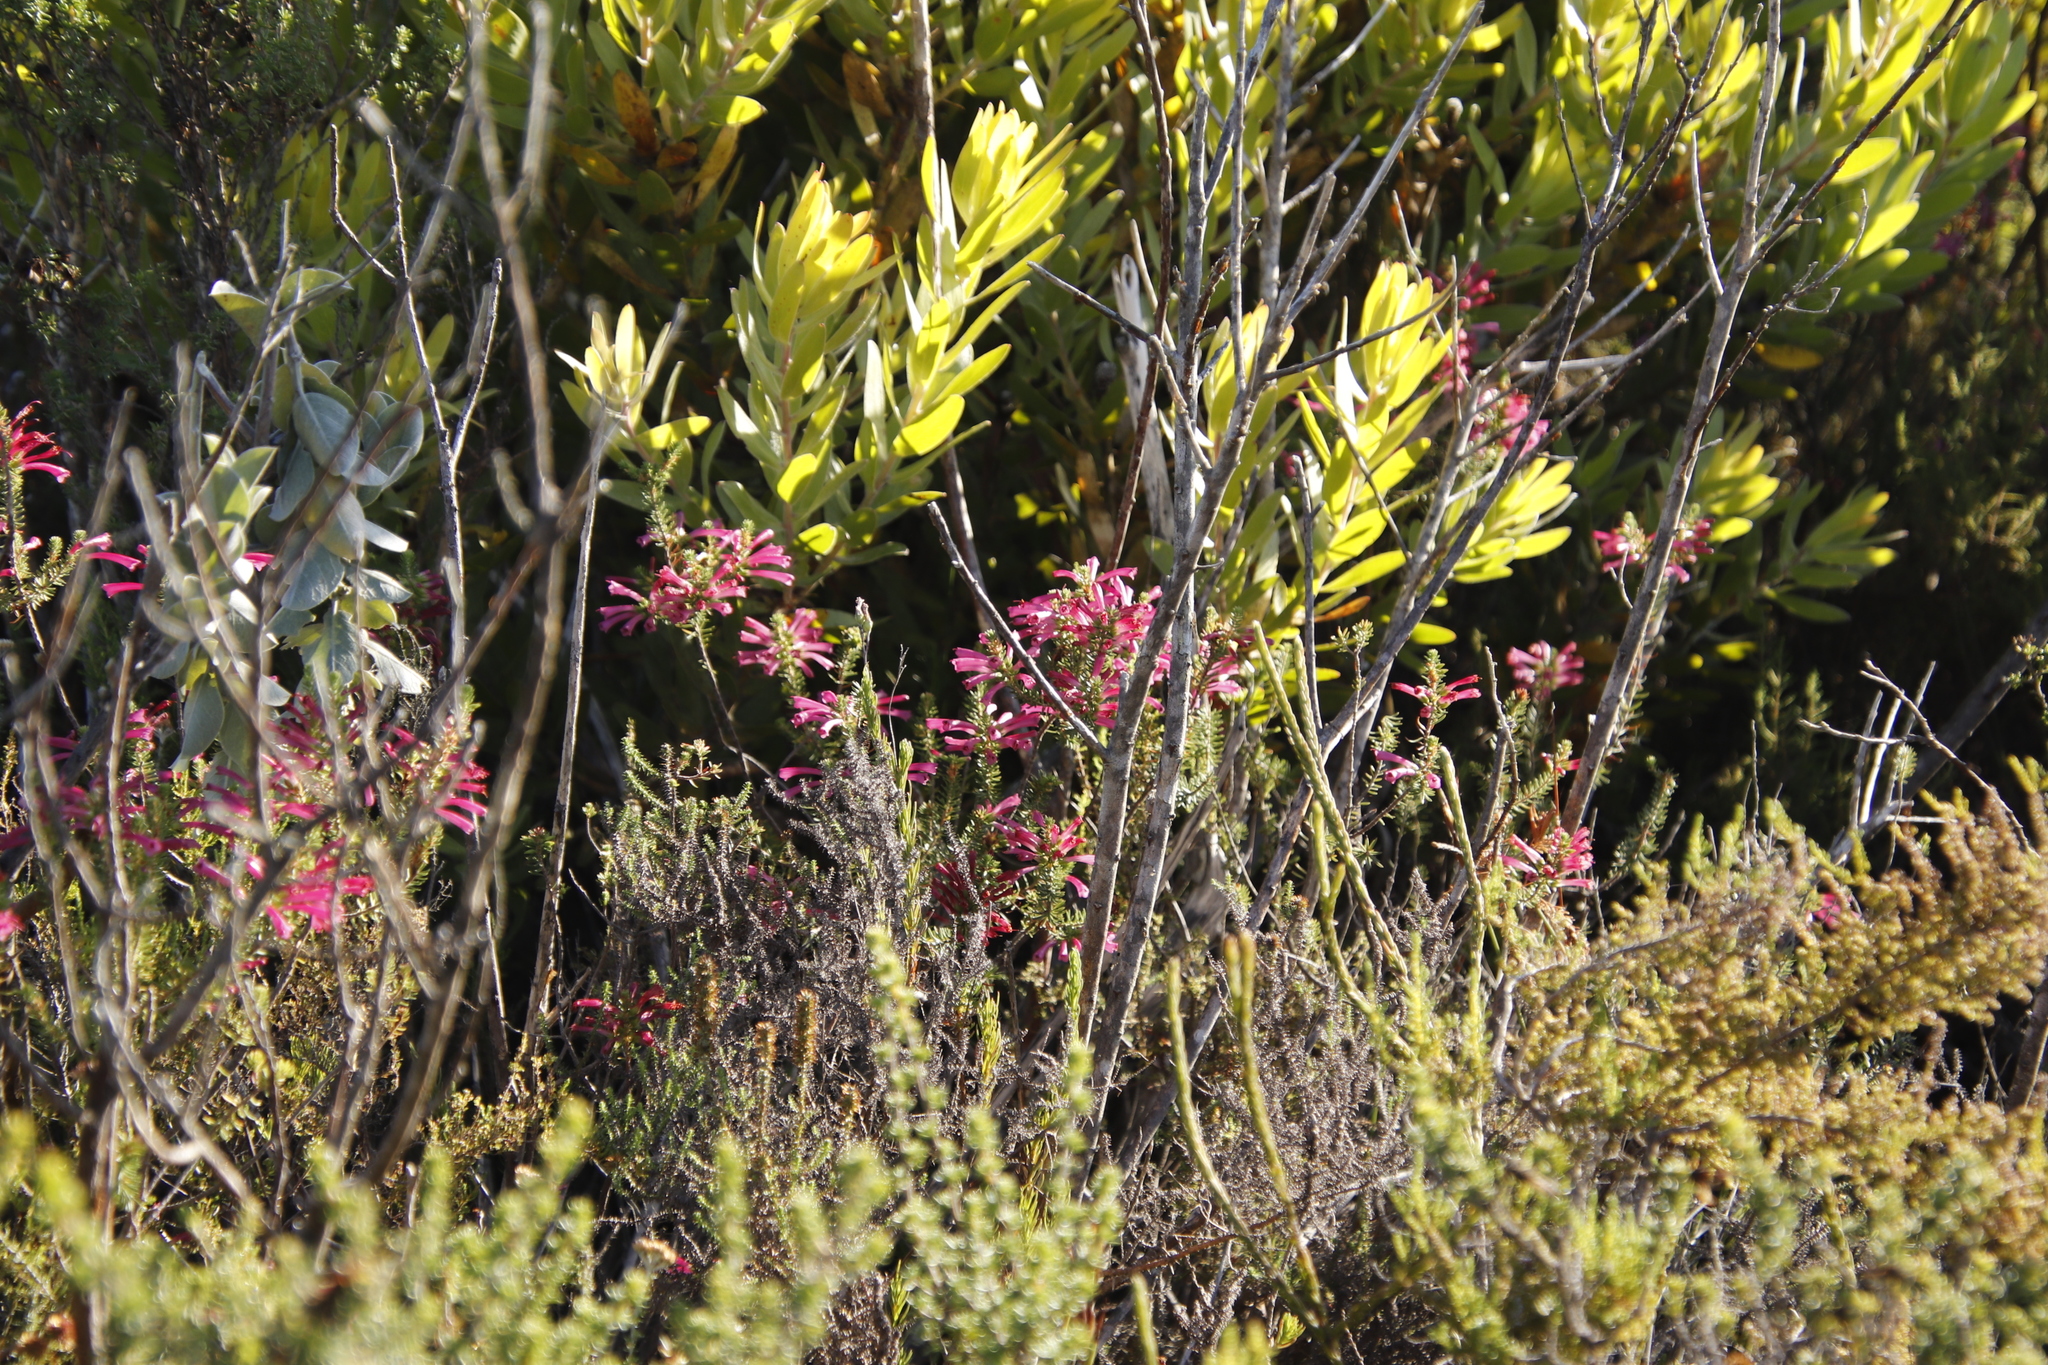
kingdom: Plantae
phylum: Tracheophyta
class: Magnoliopsida
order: Proteales
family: Proteaceae
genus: Leucadendron
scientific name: Leucadendron laureolum
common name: Golden sunshinebush
